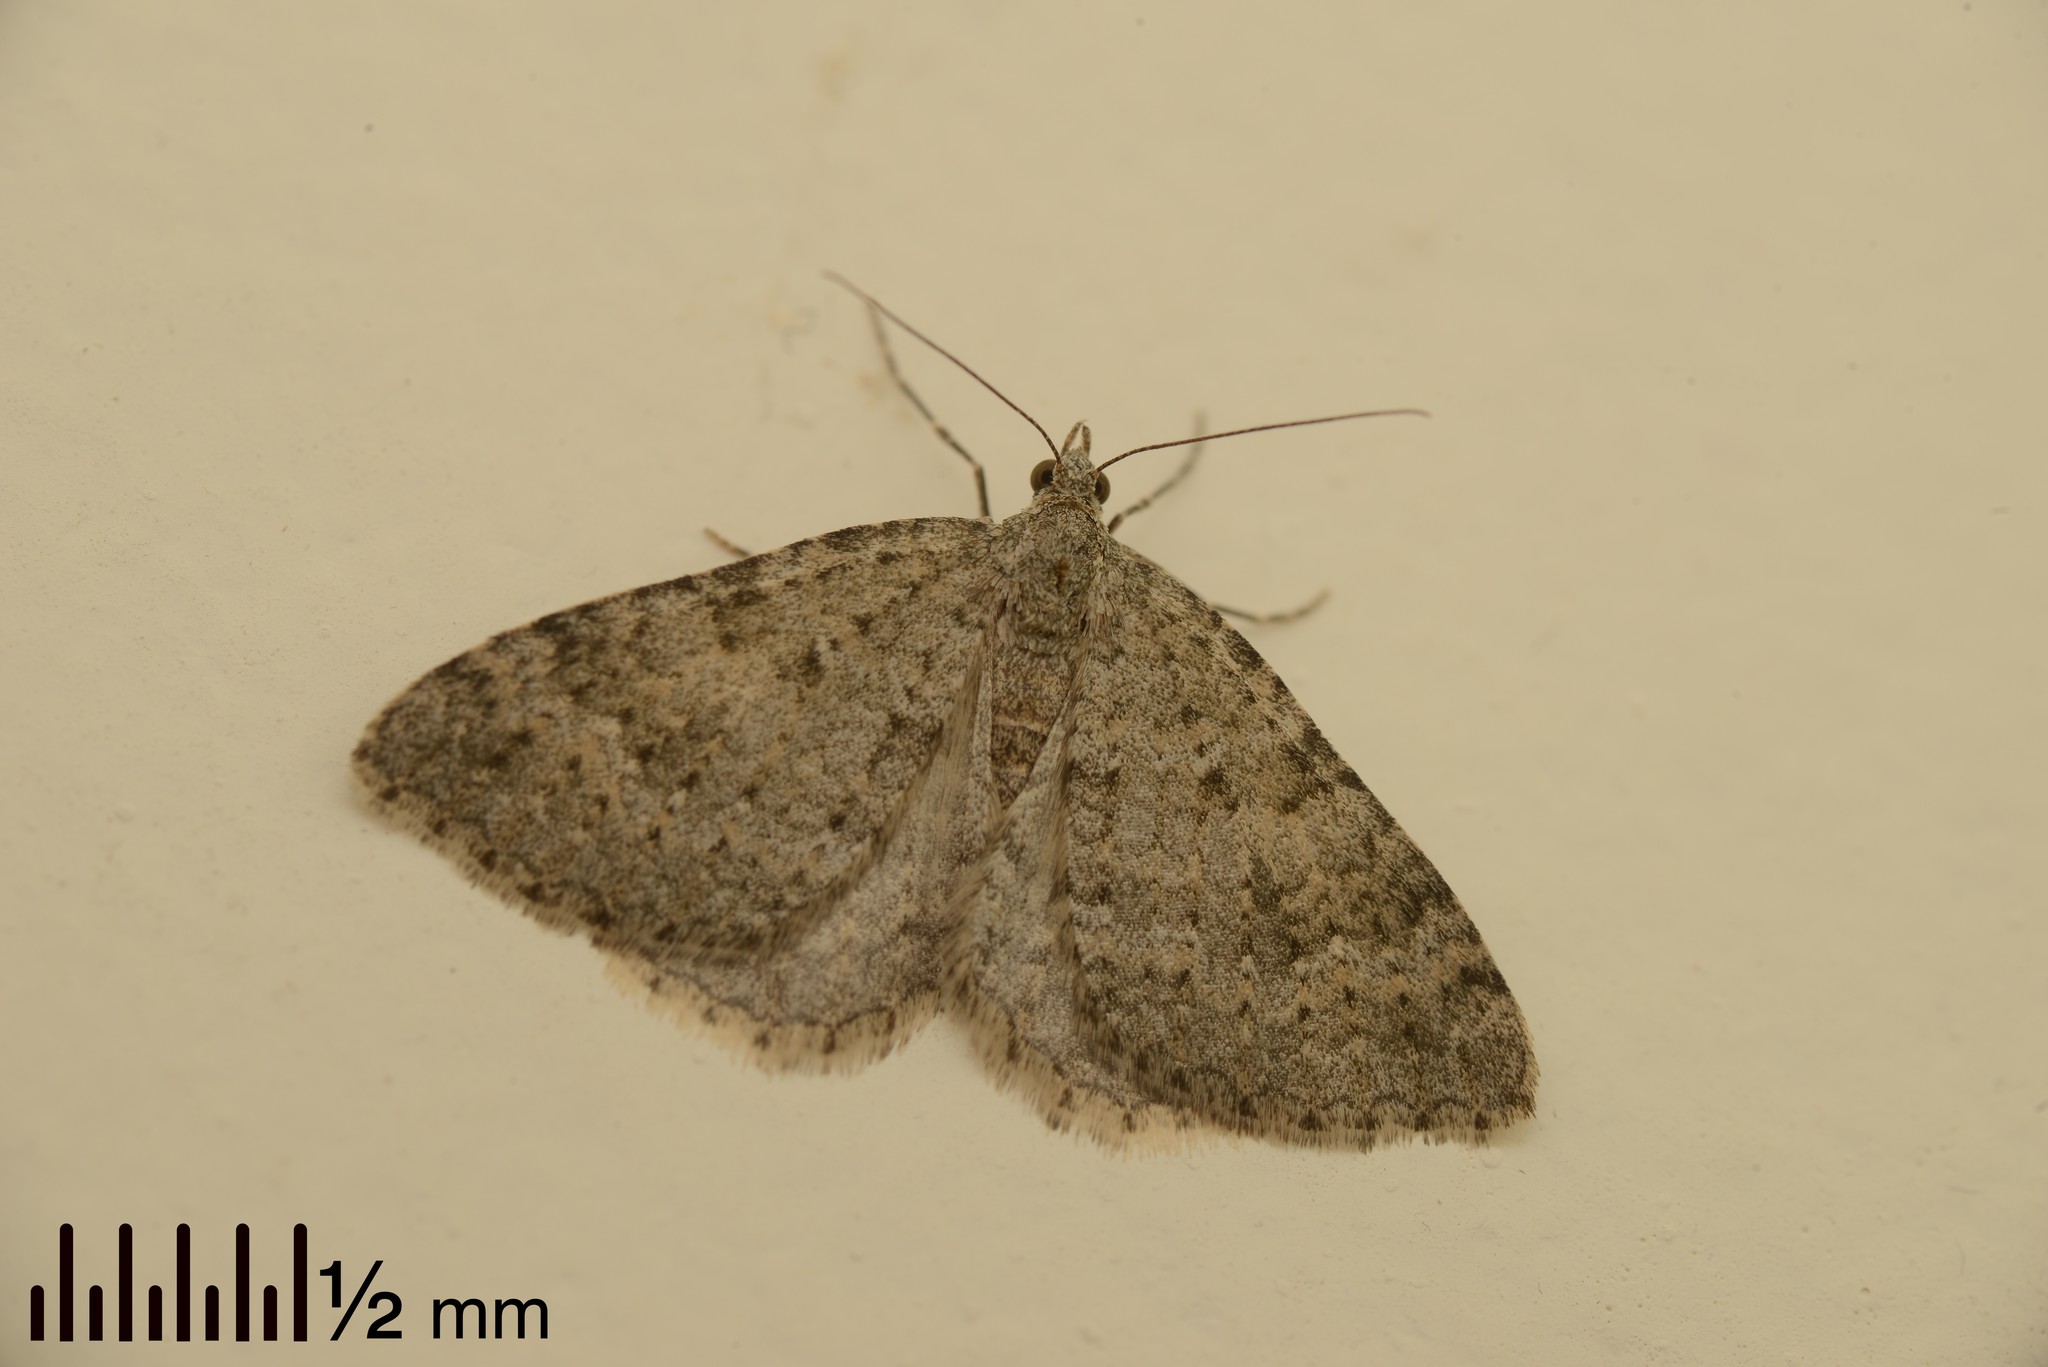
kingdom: Animalia
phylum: Arthropoda
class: Insecta
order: Lepidoptera
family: Geometridae
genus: Helastia
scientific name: Helastia corcularia
